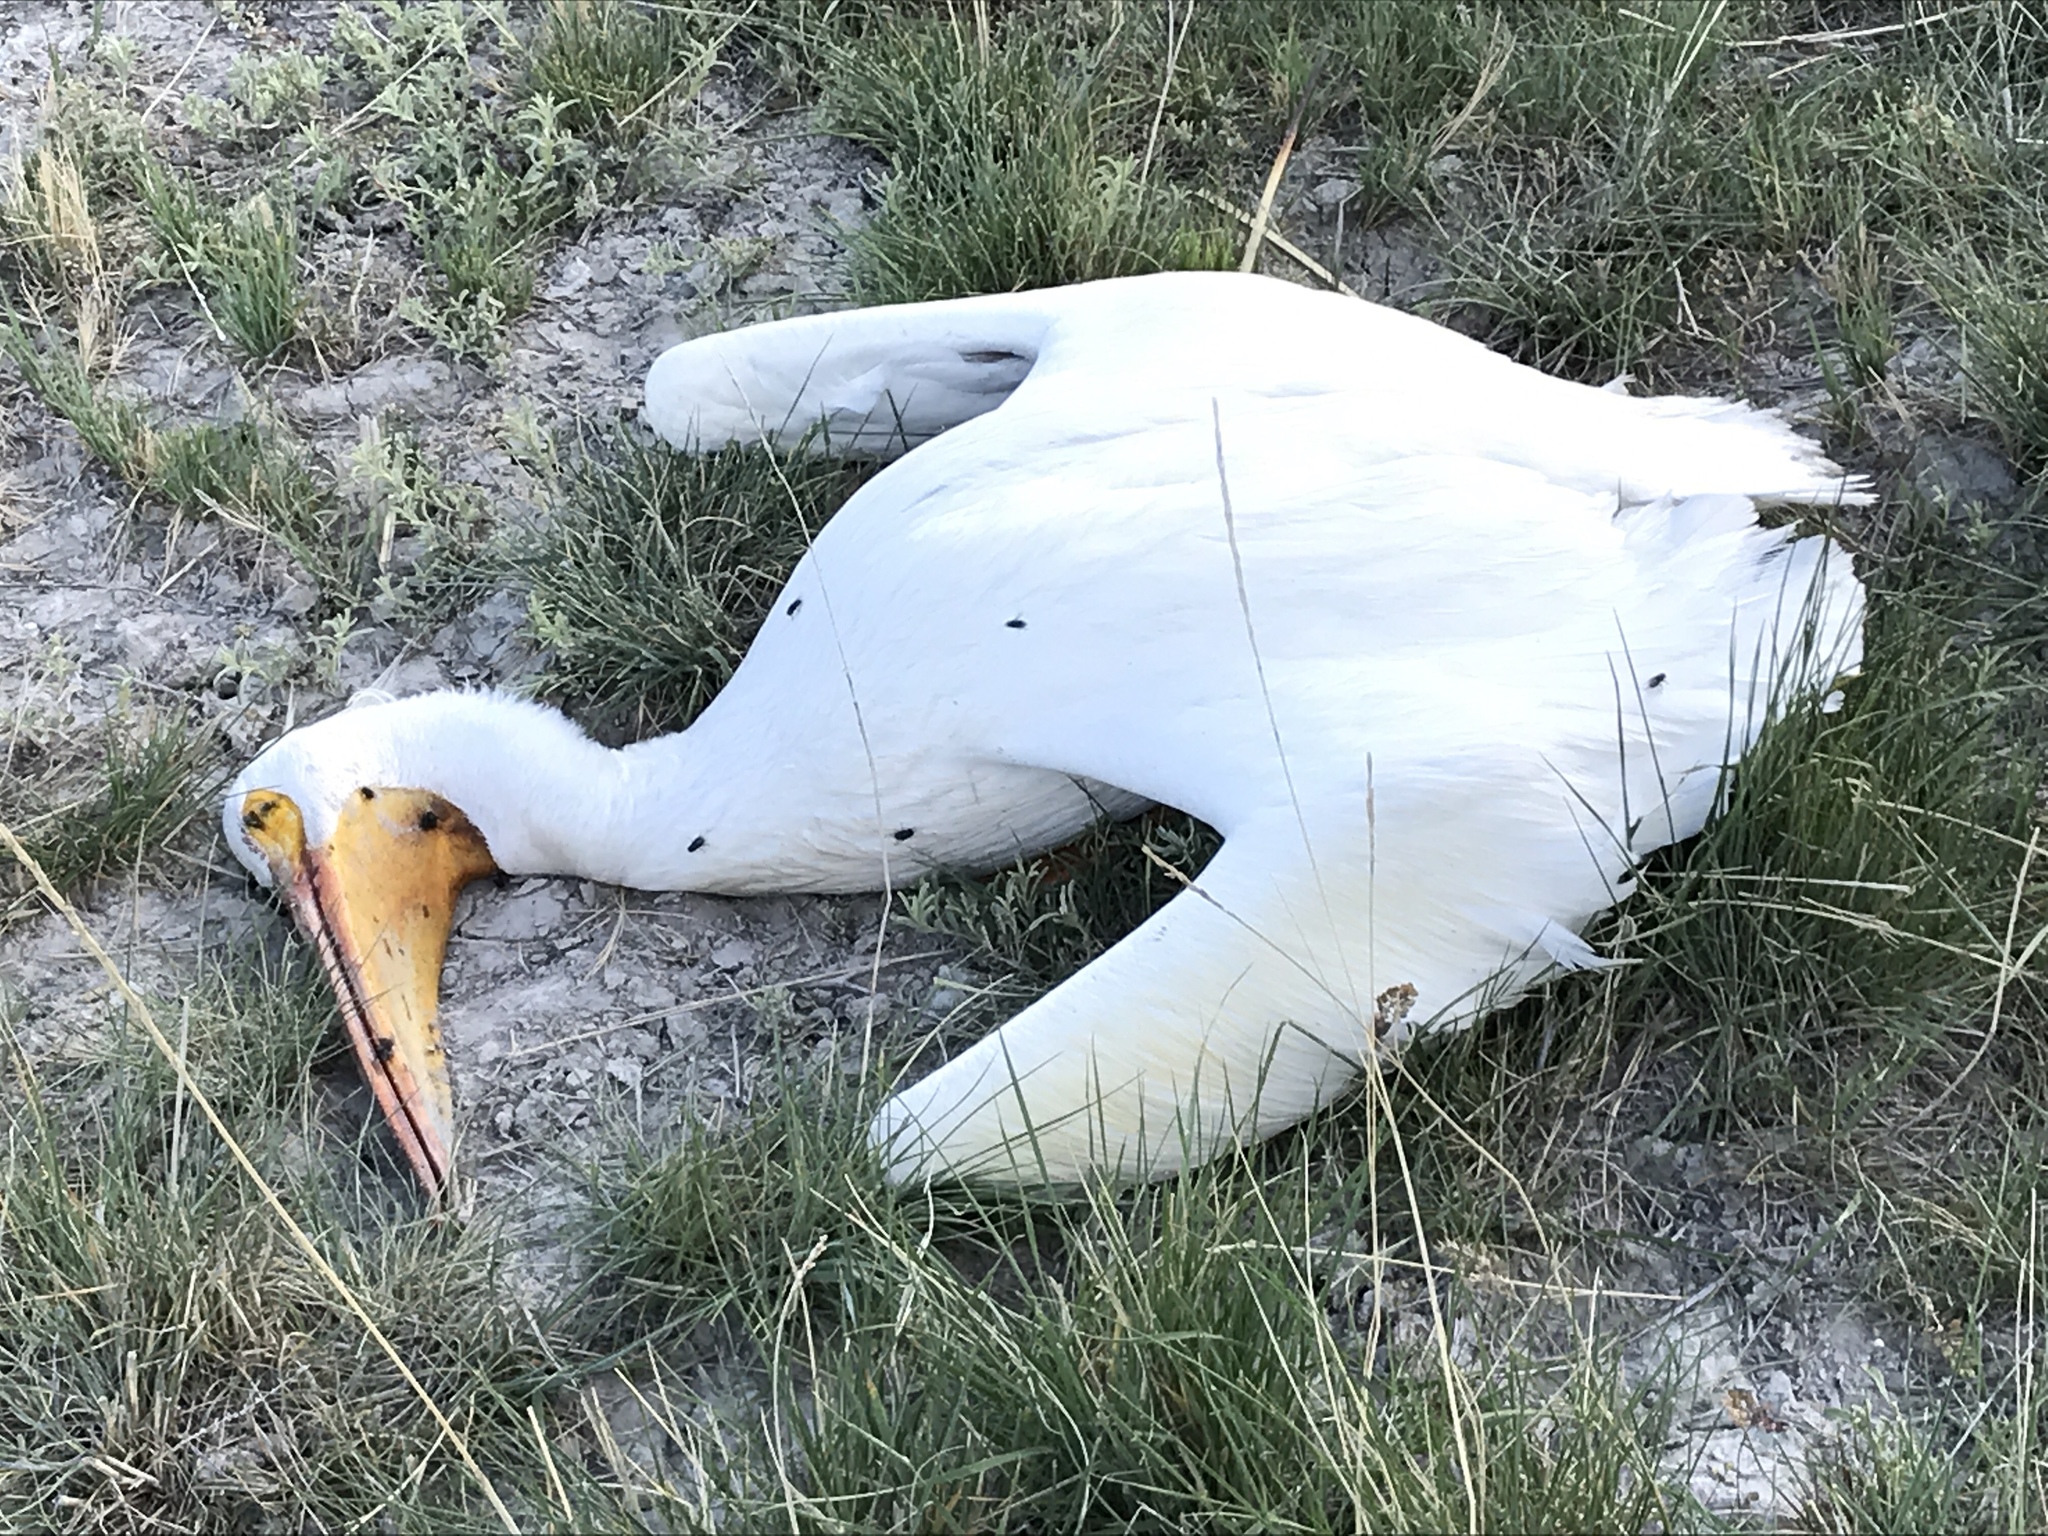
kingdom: Animalia
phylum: Chordata
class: Aves
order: Pelecaniformes
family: Pelecanidae
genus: Pelecanus
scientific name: Pelecanus erythrorhynchos
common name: American white pelican
